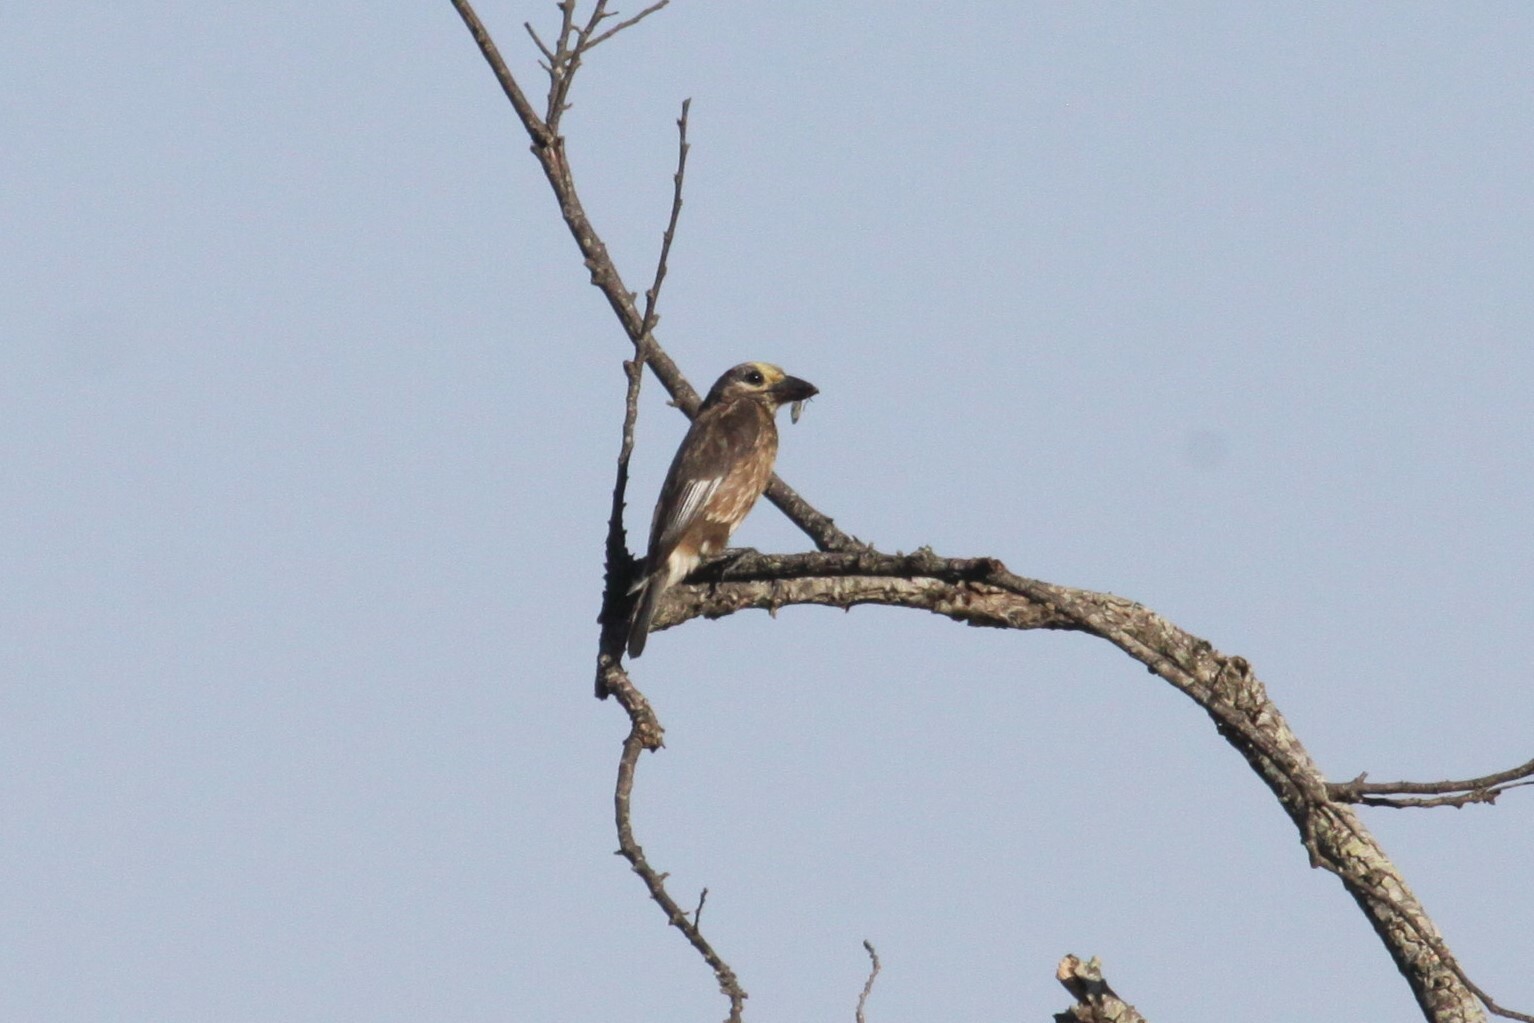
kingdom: Animalia
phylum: Chordata
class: Aves
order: Piciformes
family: Lybiidae
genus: Stactolaema
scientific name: Stactolaema whytii
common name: Whyte's barbet
